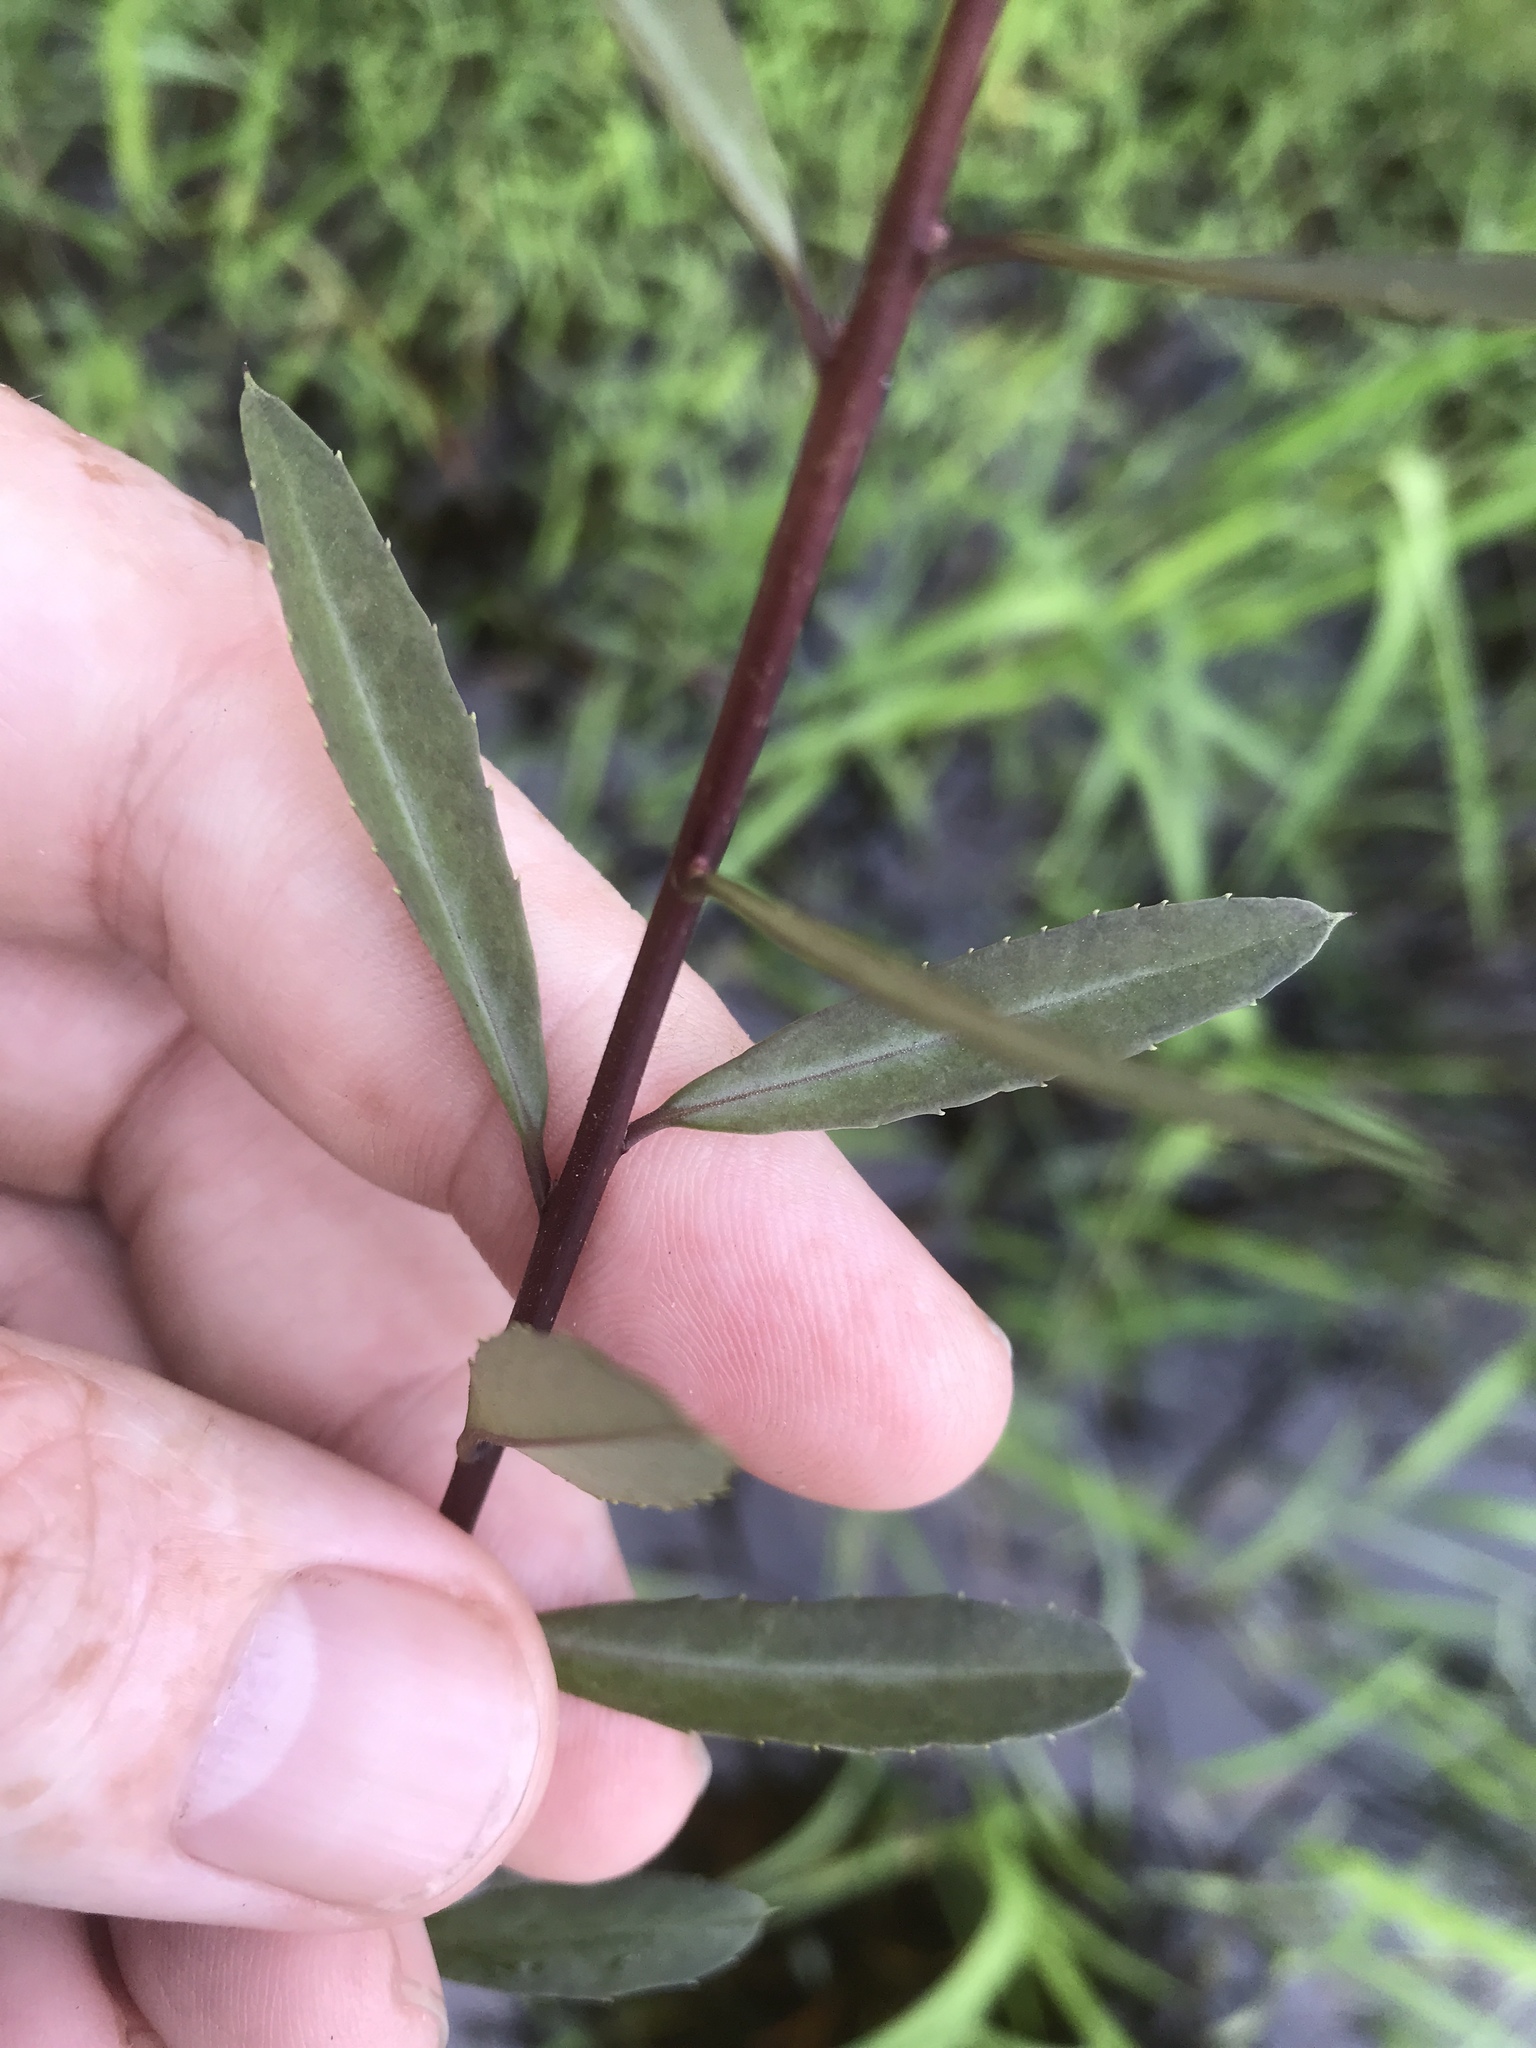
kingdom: Plantae
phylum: Tracheophyta
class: Magnoliopsida
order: Aquifoliales
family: Aquifoliaceae
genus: Ilex
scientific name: Ilex myrtifolia
